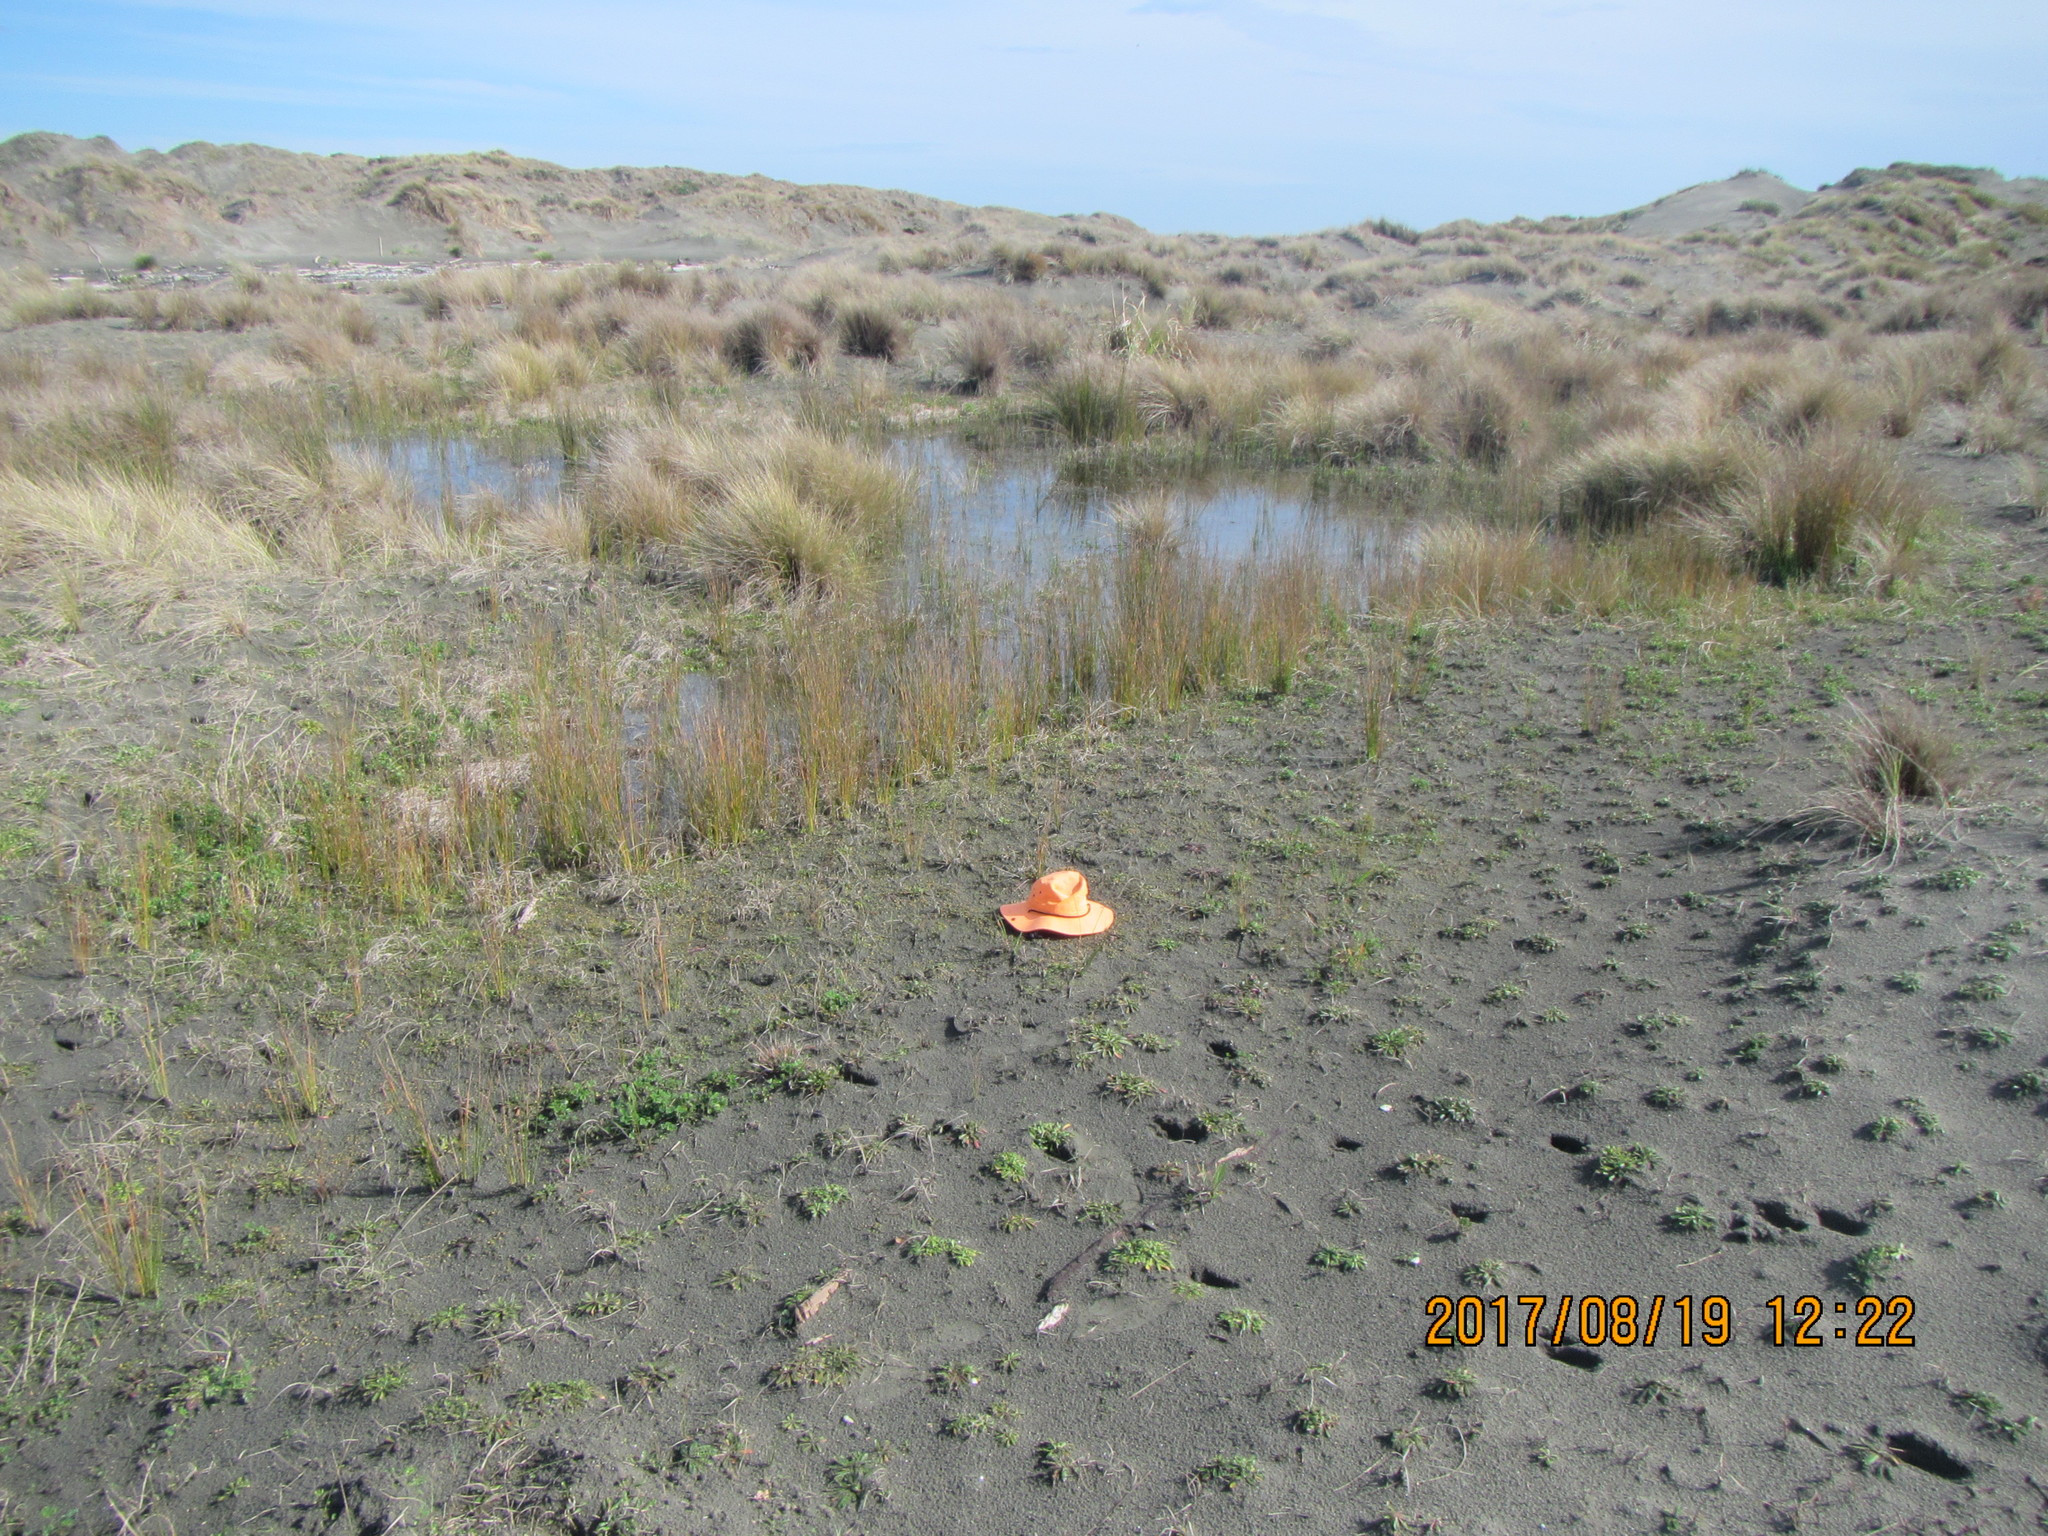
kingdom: Plantae
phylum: Tracheophyta
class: Magnoliopsida
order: Asterales
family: Goodeniaceae
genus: Goodenia
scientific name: Goodenia heenanii
